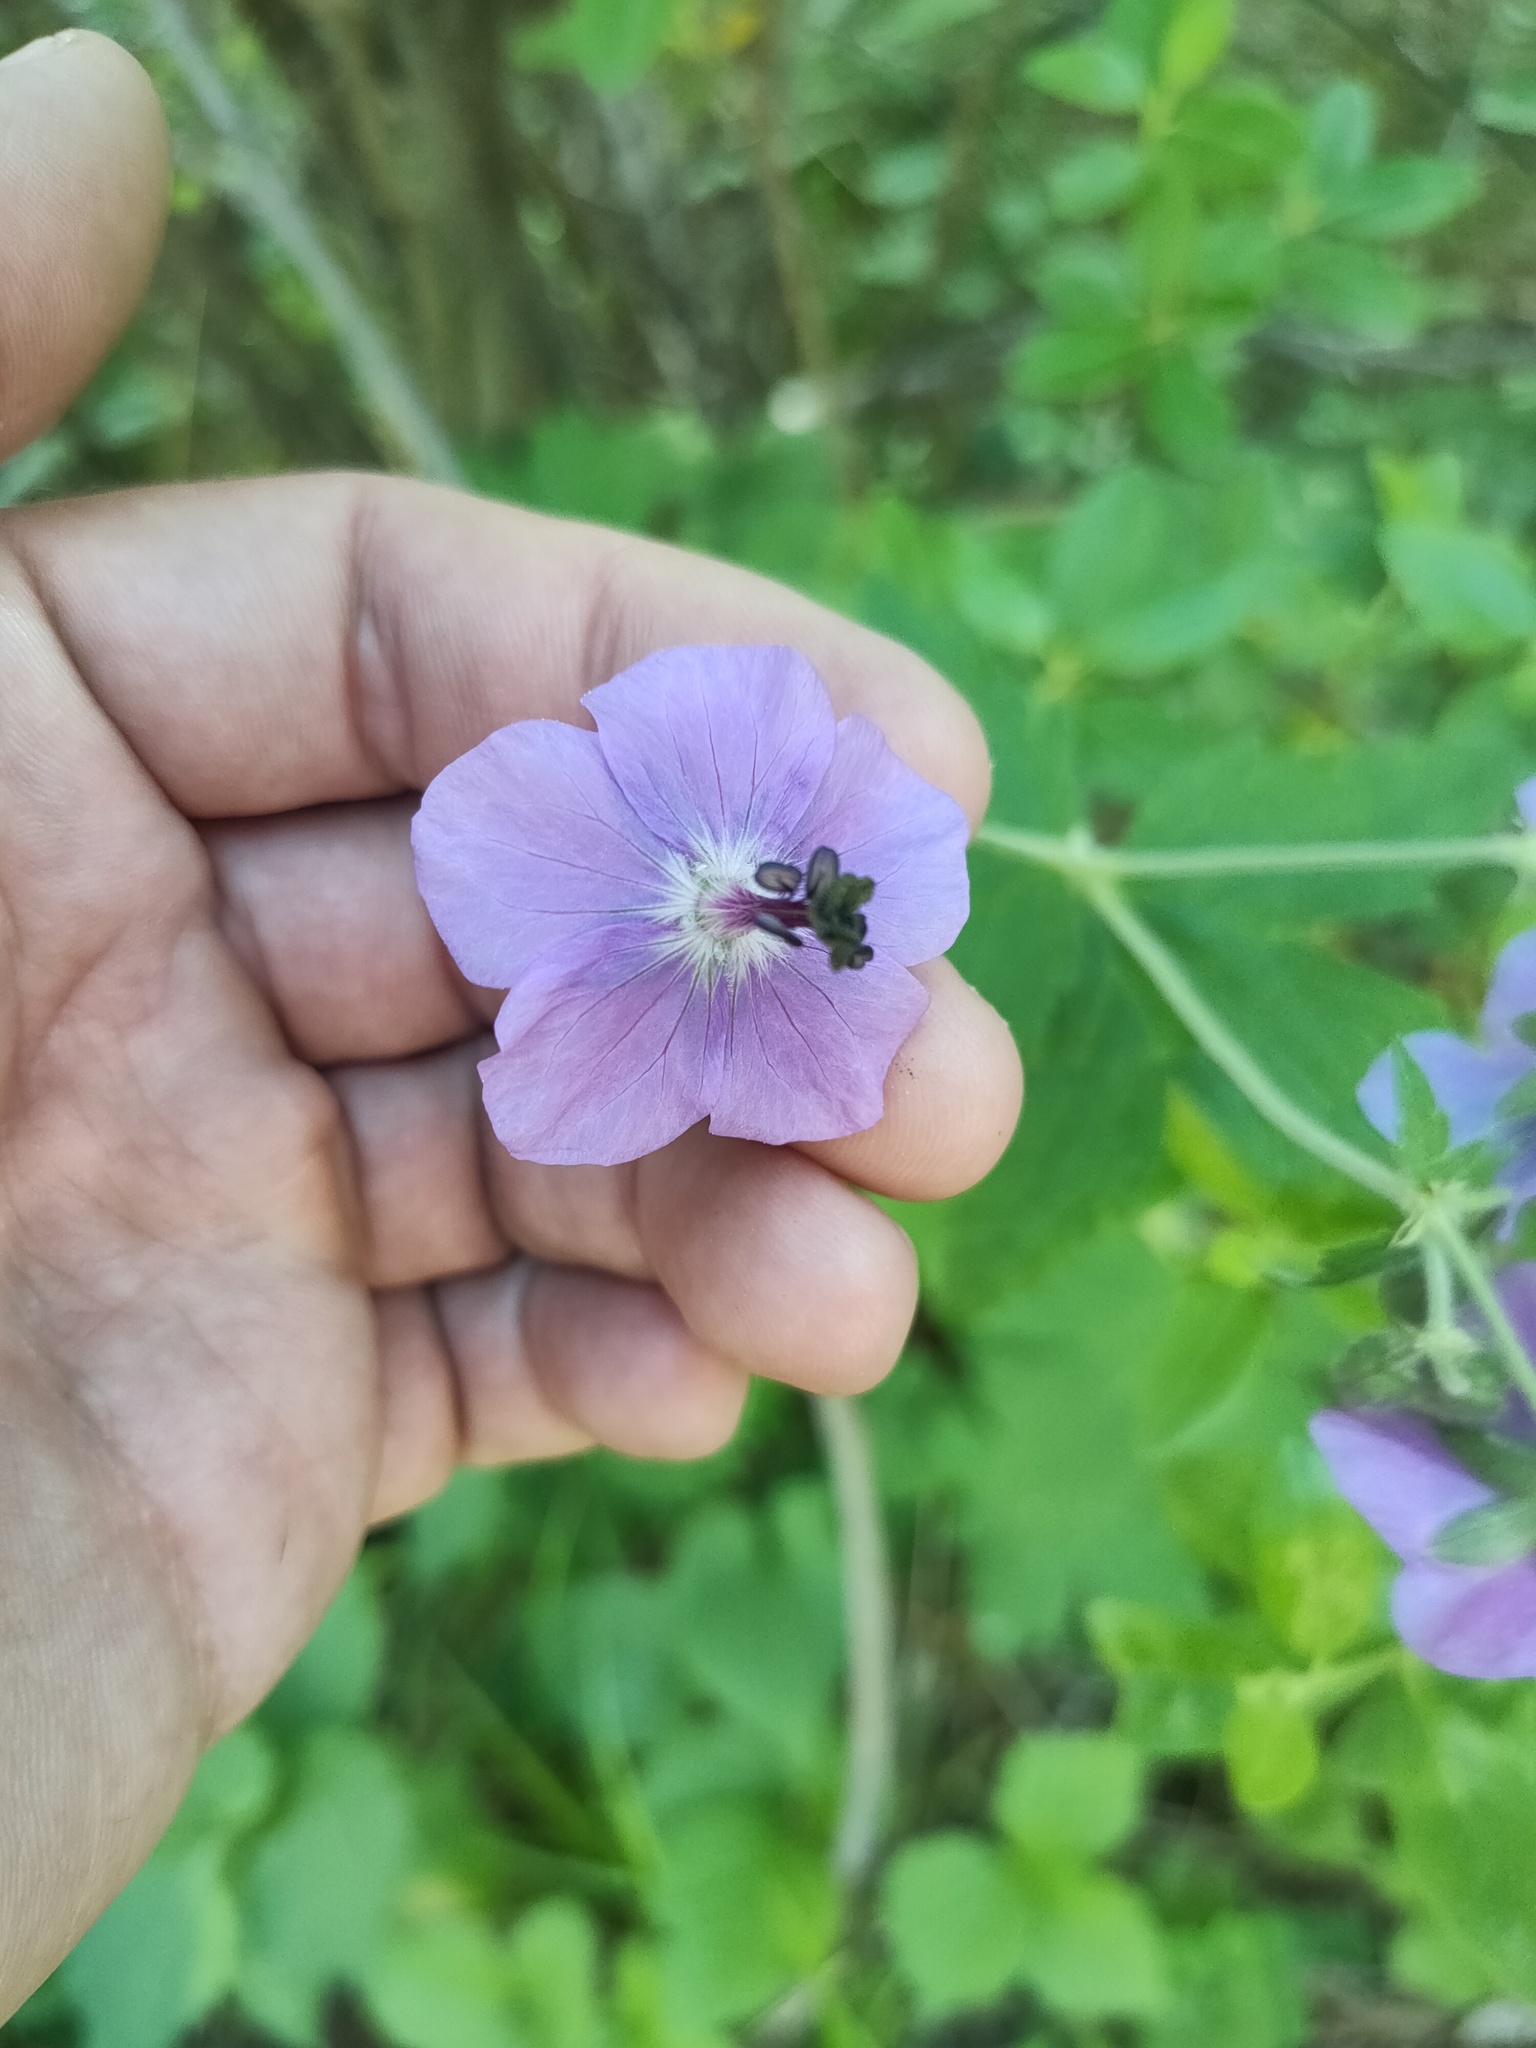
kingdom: Plantae
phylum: Tracheophyta
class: Magnoliopsida
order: Geraniales
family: Geraniaceae
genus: Geranium
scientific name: Geranium platyanthum
